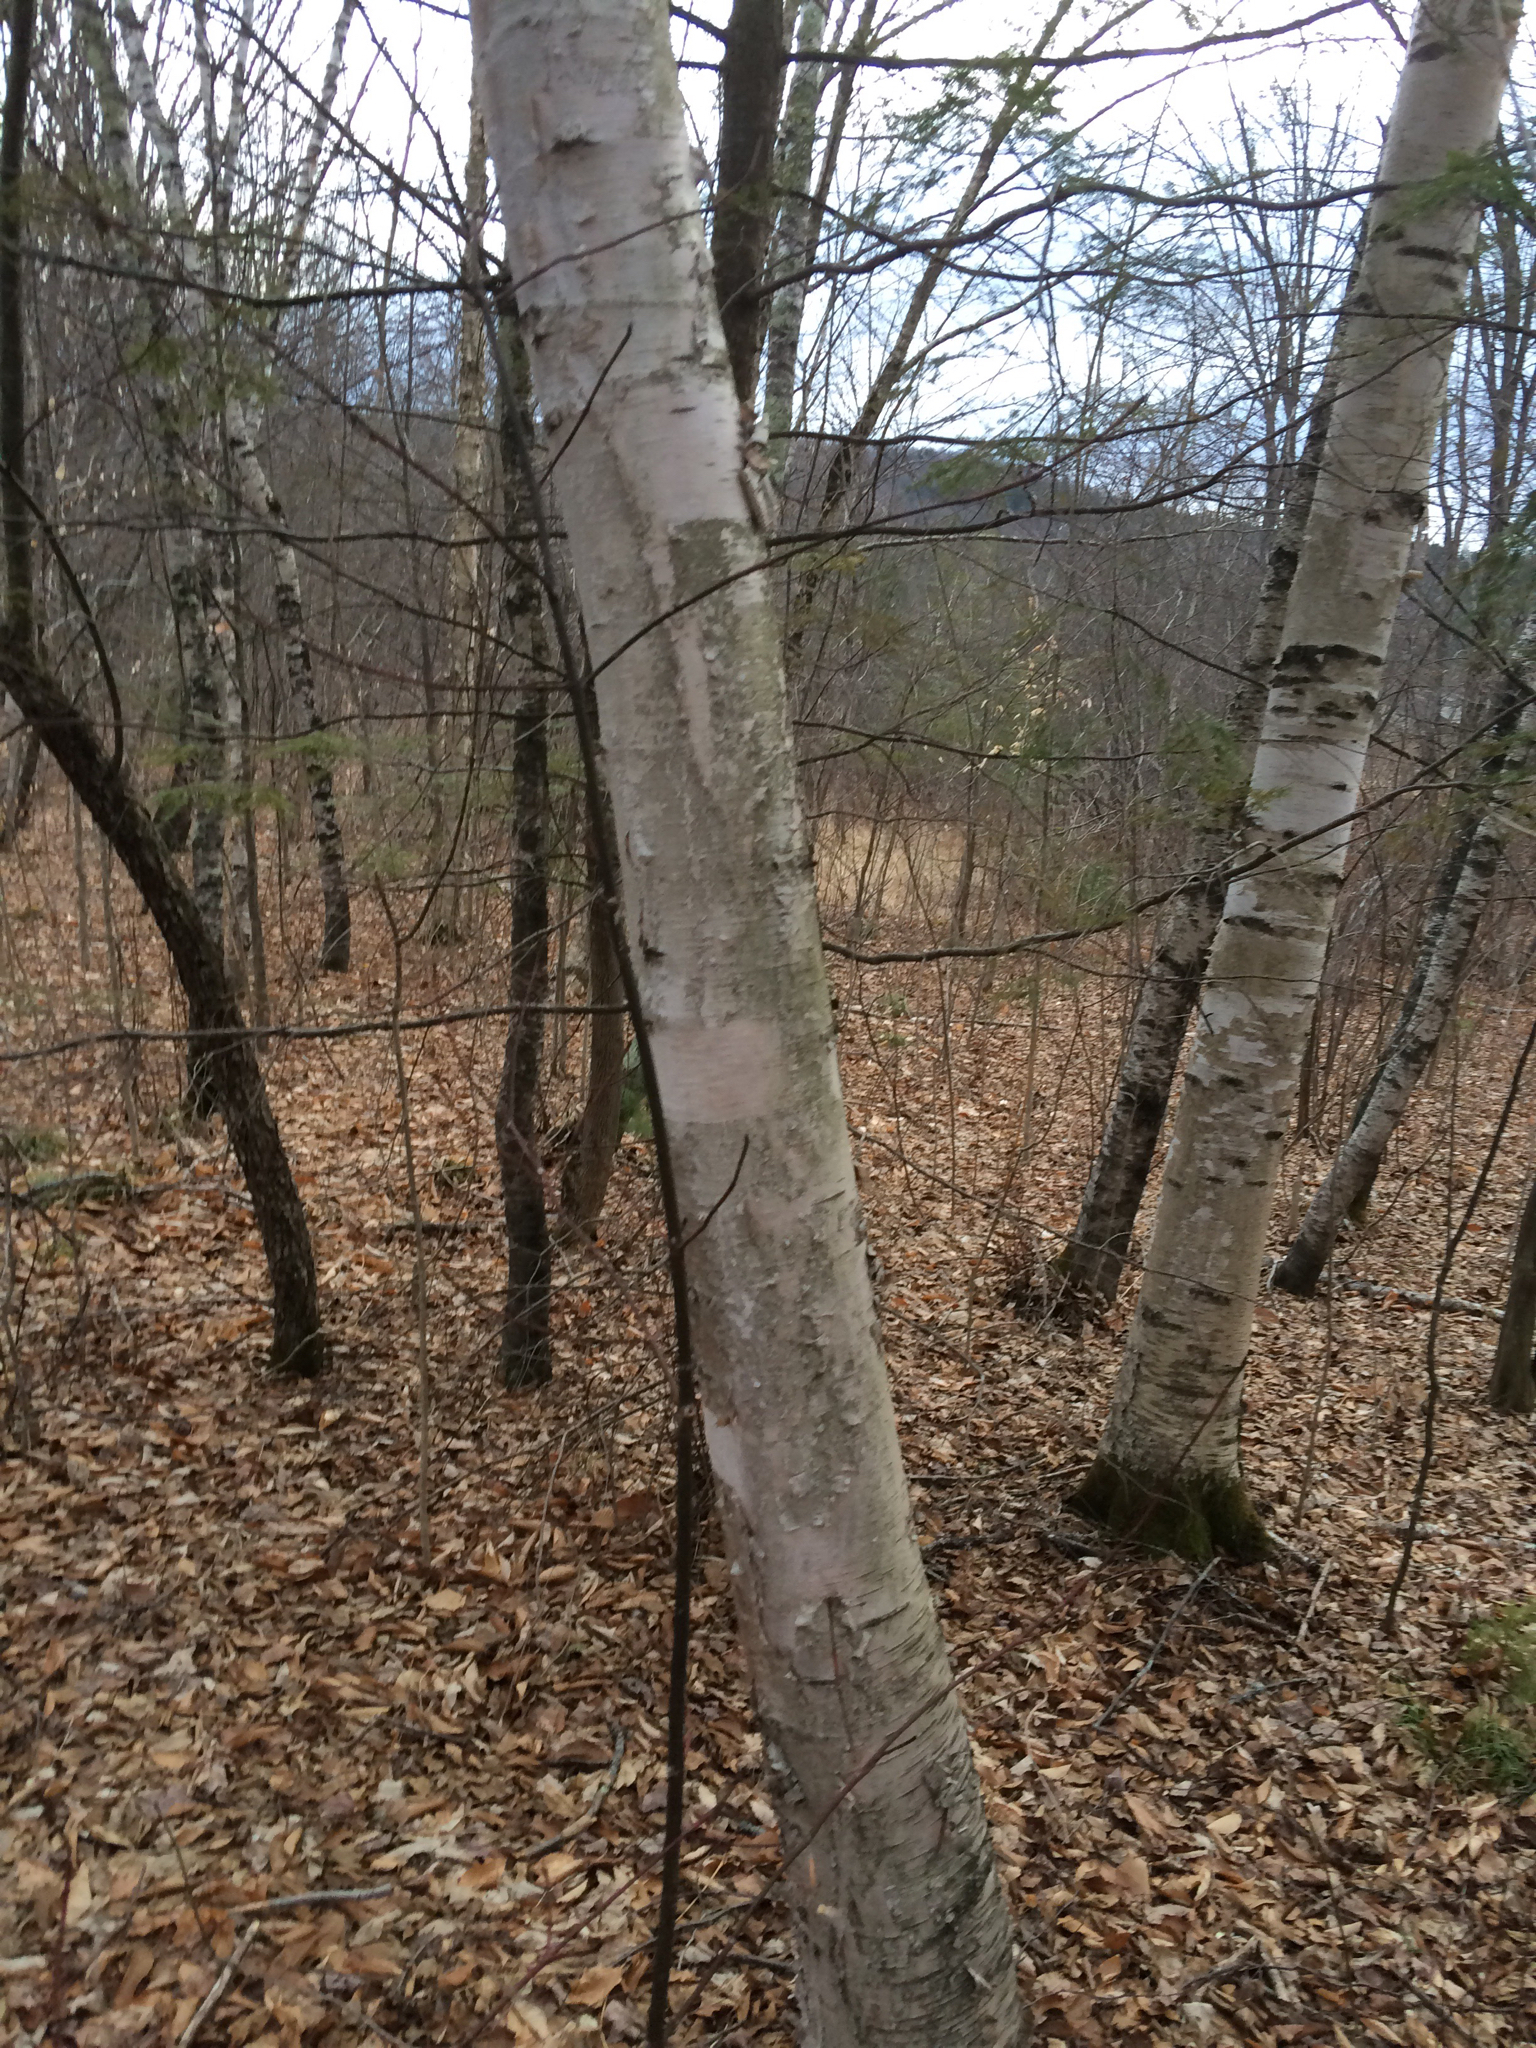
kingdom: Plantae
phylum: Tracheophyta
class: Magnoliopsida
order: Fagales
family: Betulaceae
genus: Betula
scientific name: Betula papyrifera
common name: Paper birch
